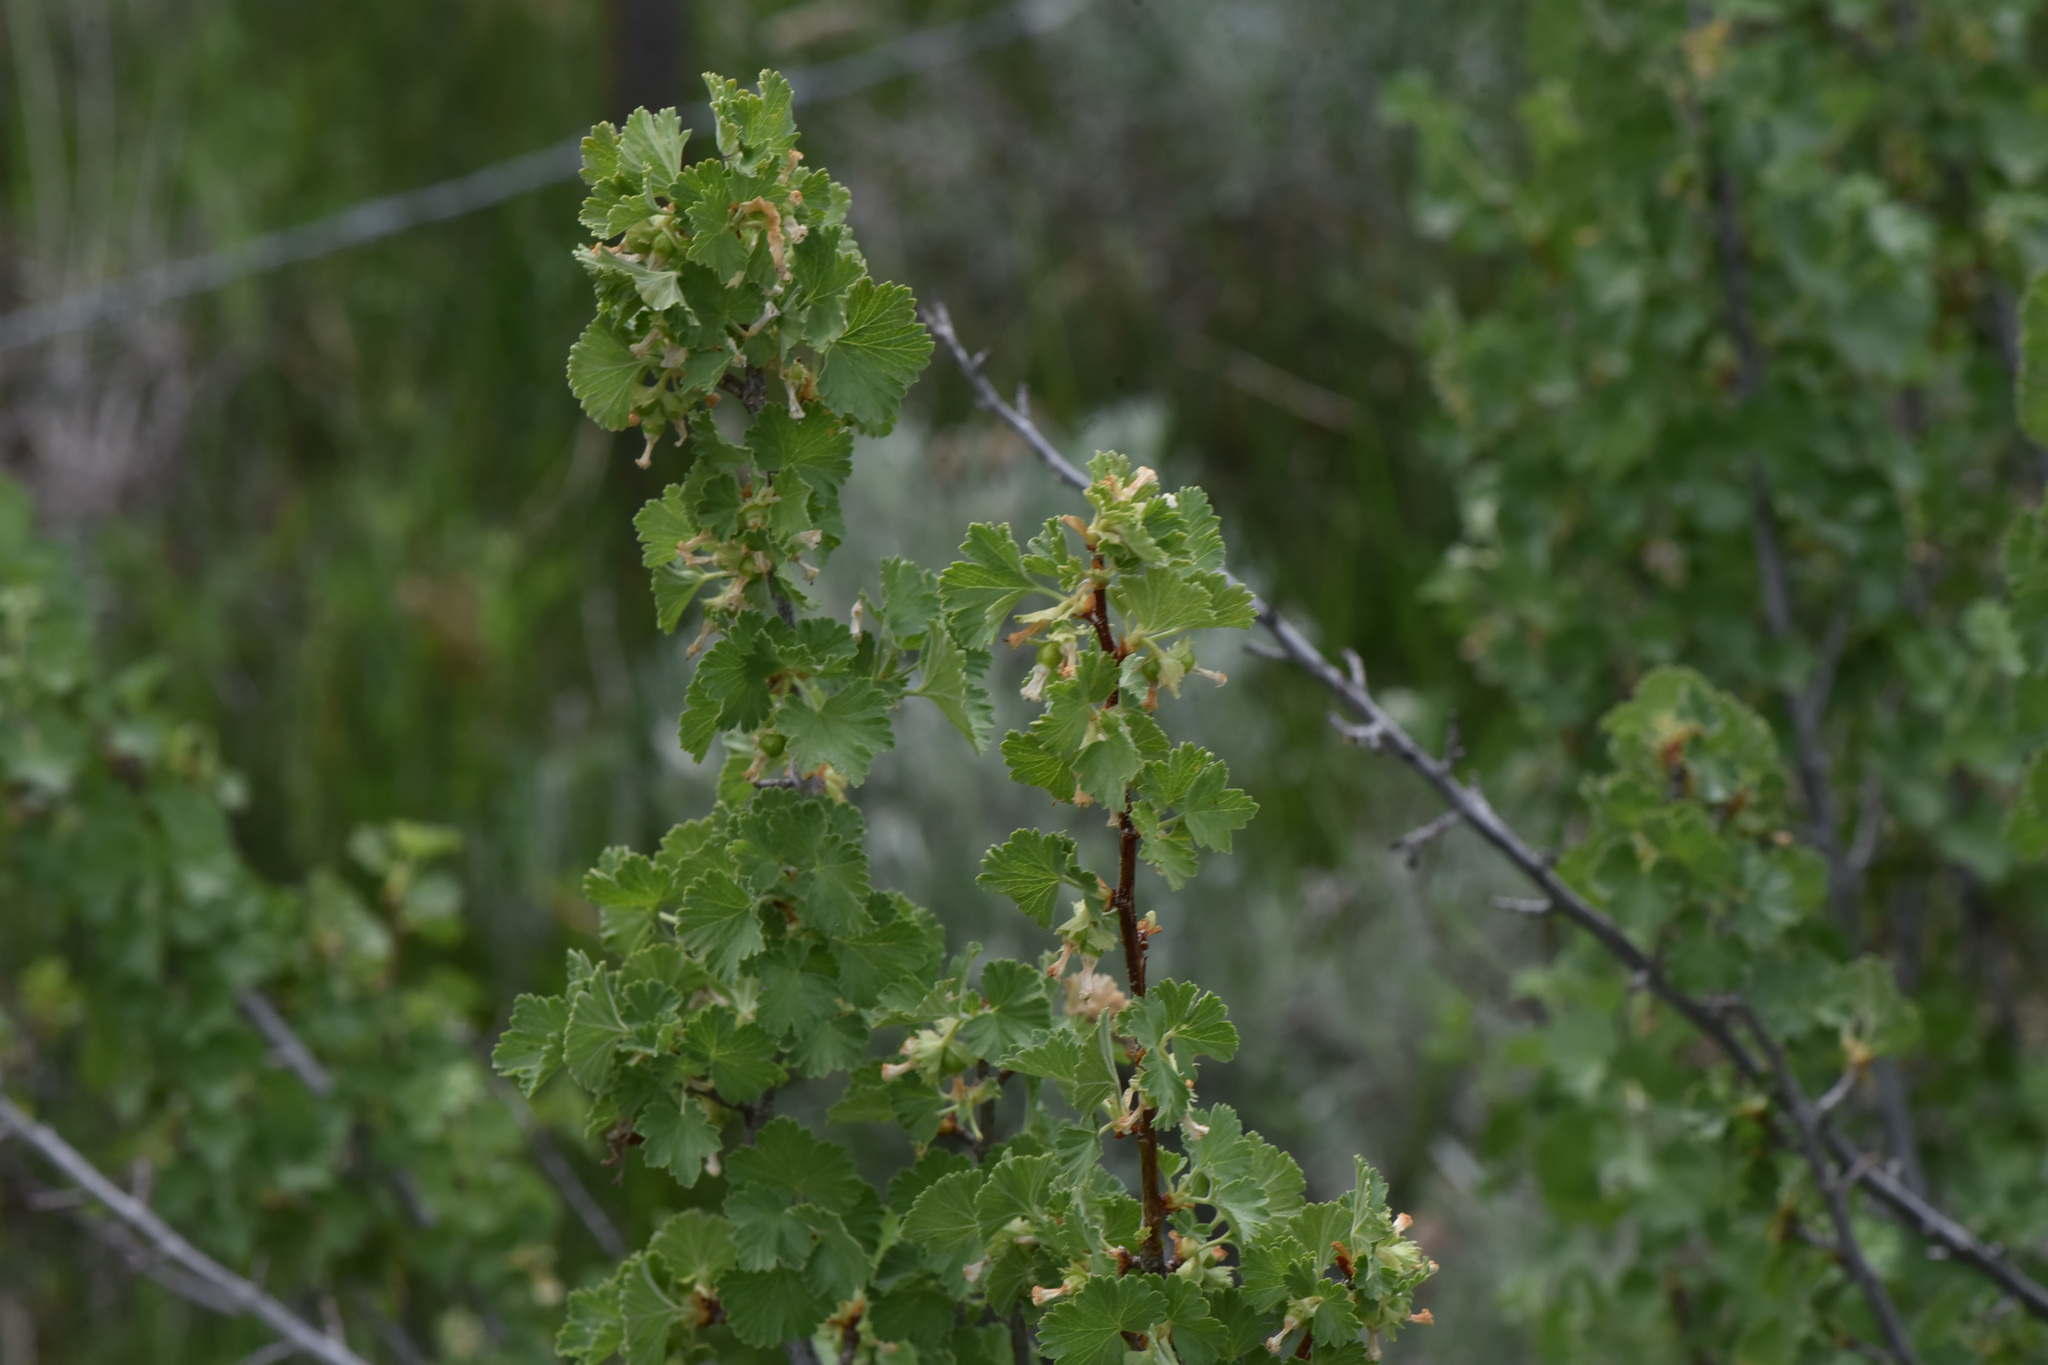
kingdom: Plantae
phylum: Tracheophyta
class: Magnoliopsida
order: Saxifragales
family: Grossulariaceae
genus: Ribes
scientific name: Ribes cereum
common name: Wax currant
